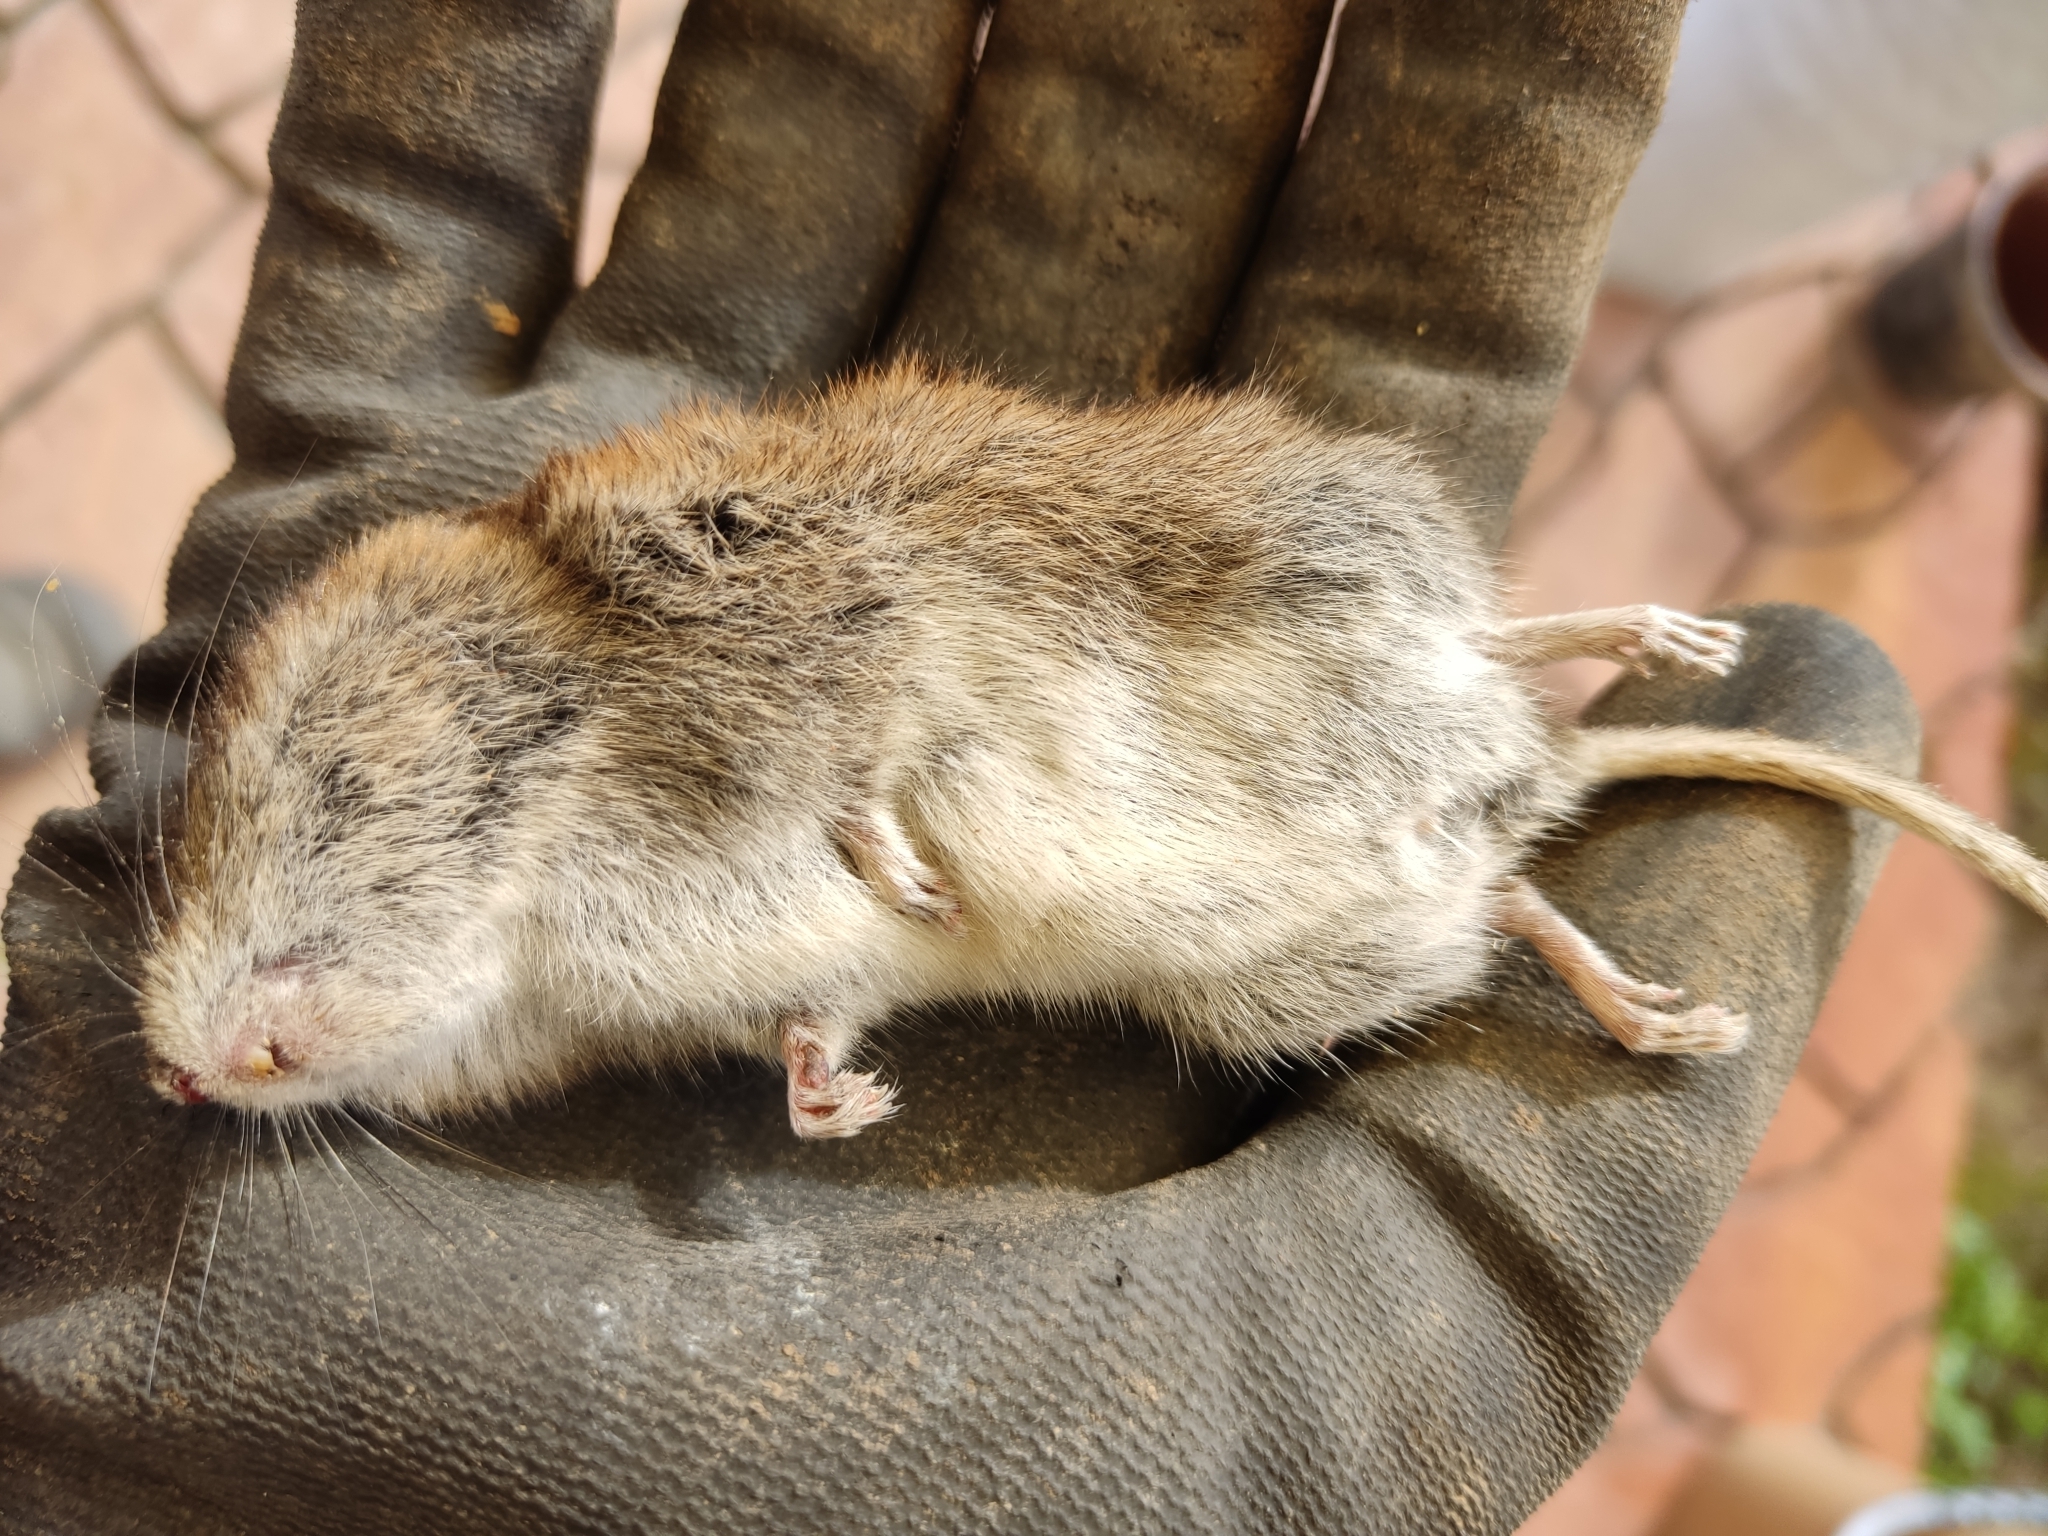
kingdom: Animalia
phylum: Chordata
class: Mammalia
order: Rodentia
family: Cricetidae
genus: Myodes
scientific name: Myodes glareolus
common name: Bank vole
